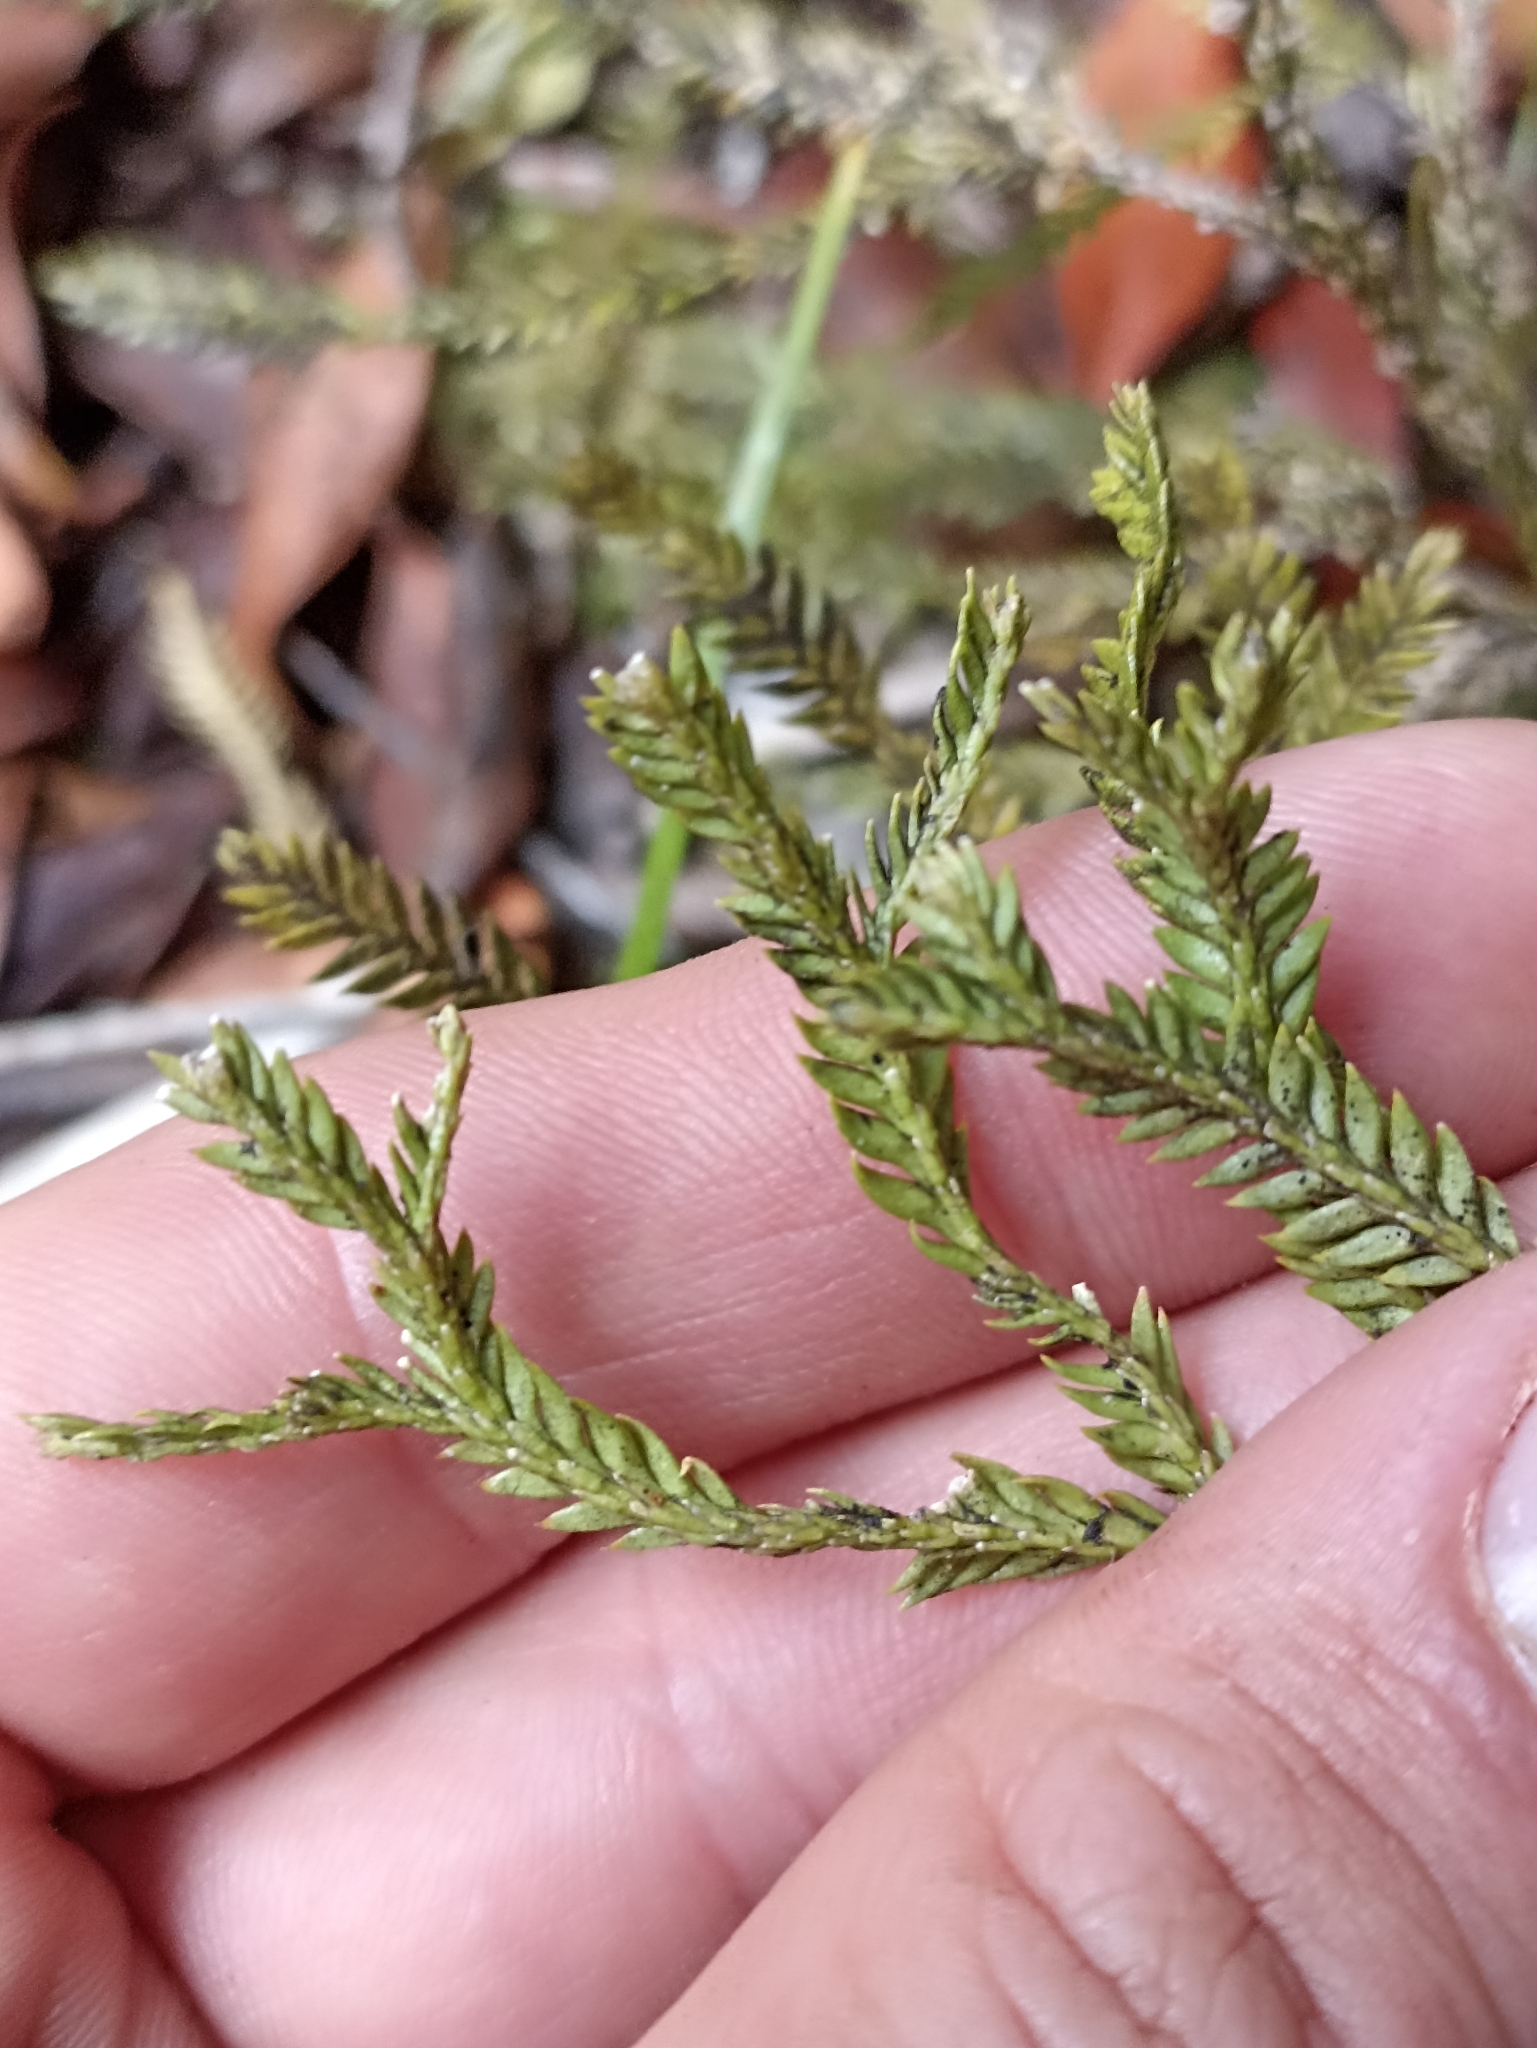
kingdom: Plantae
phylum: Tracheophyta
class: Lycopodiopsida
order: Lycopodiales
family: Lycopodiaceae
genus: Diphasium
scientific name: Diphasium scariosum
